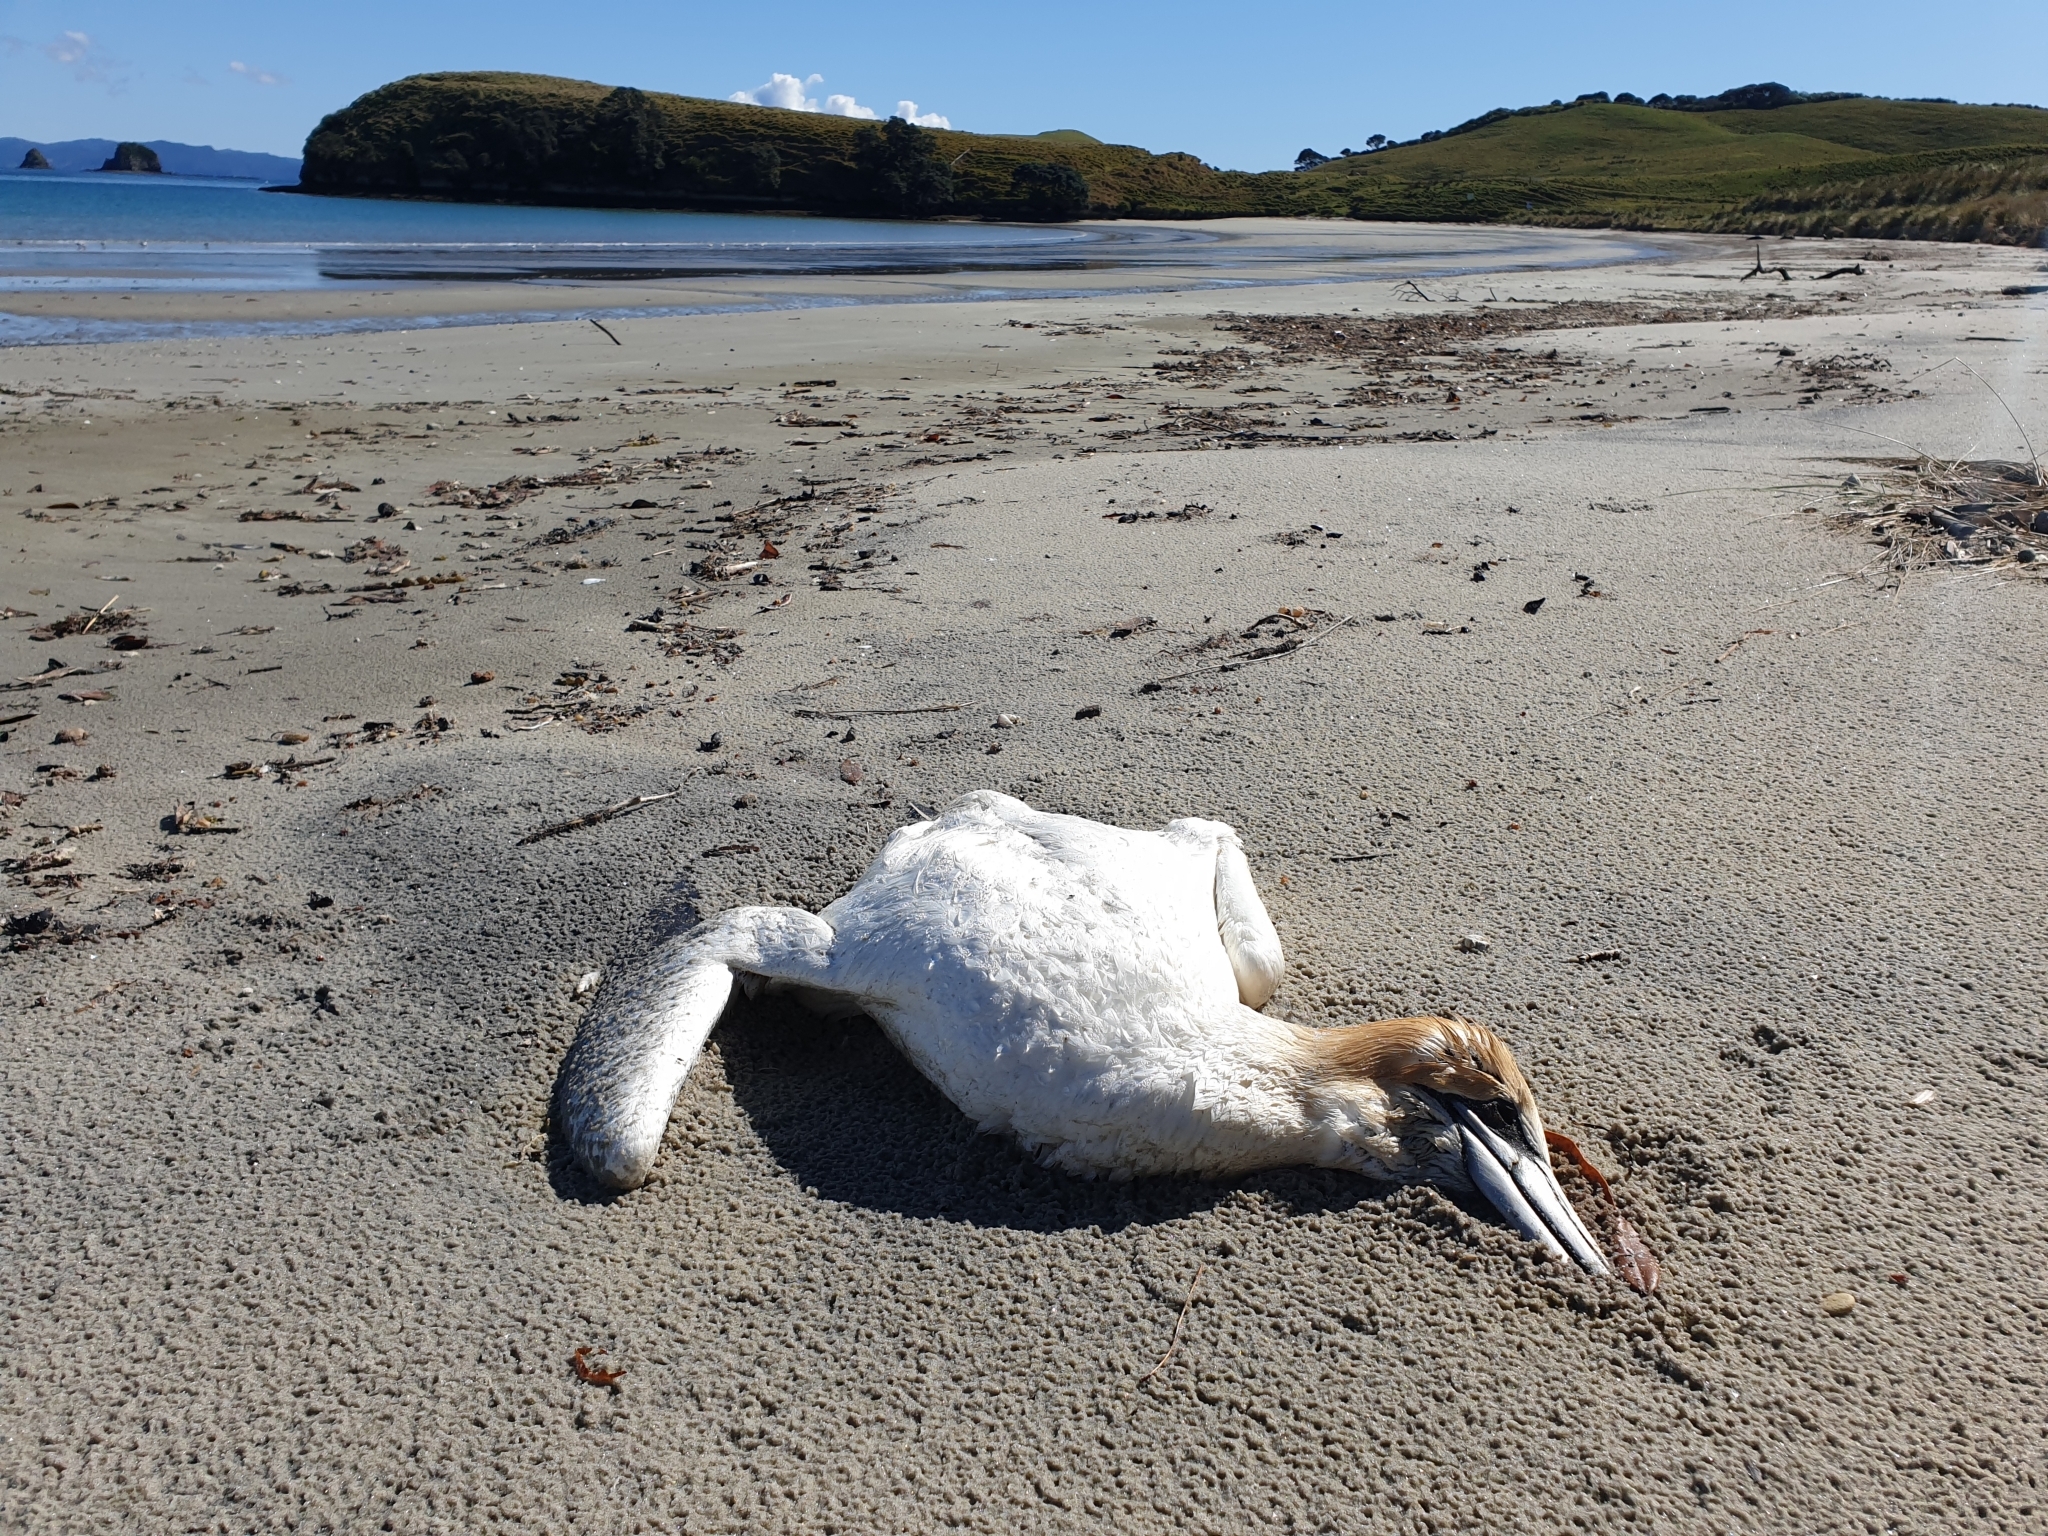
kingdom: Animalia
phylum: Chordata
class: Aves
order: Suliformes
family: Sulidae
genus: Morus
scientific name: Morus serrator
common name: Australasian gannet
